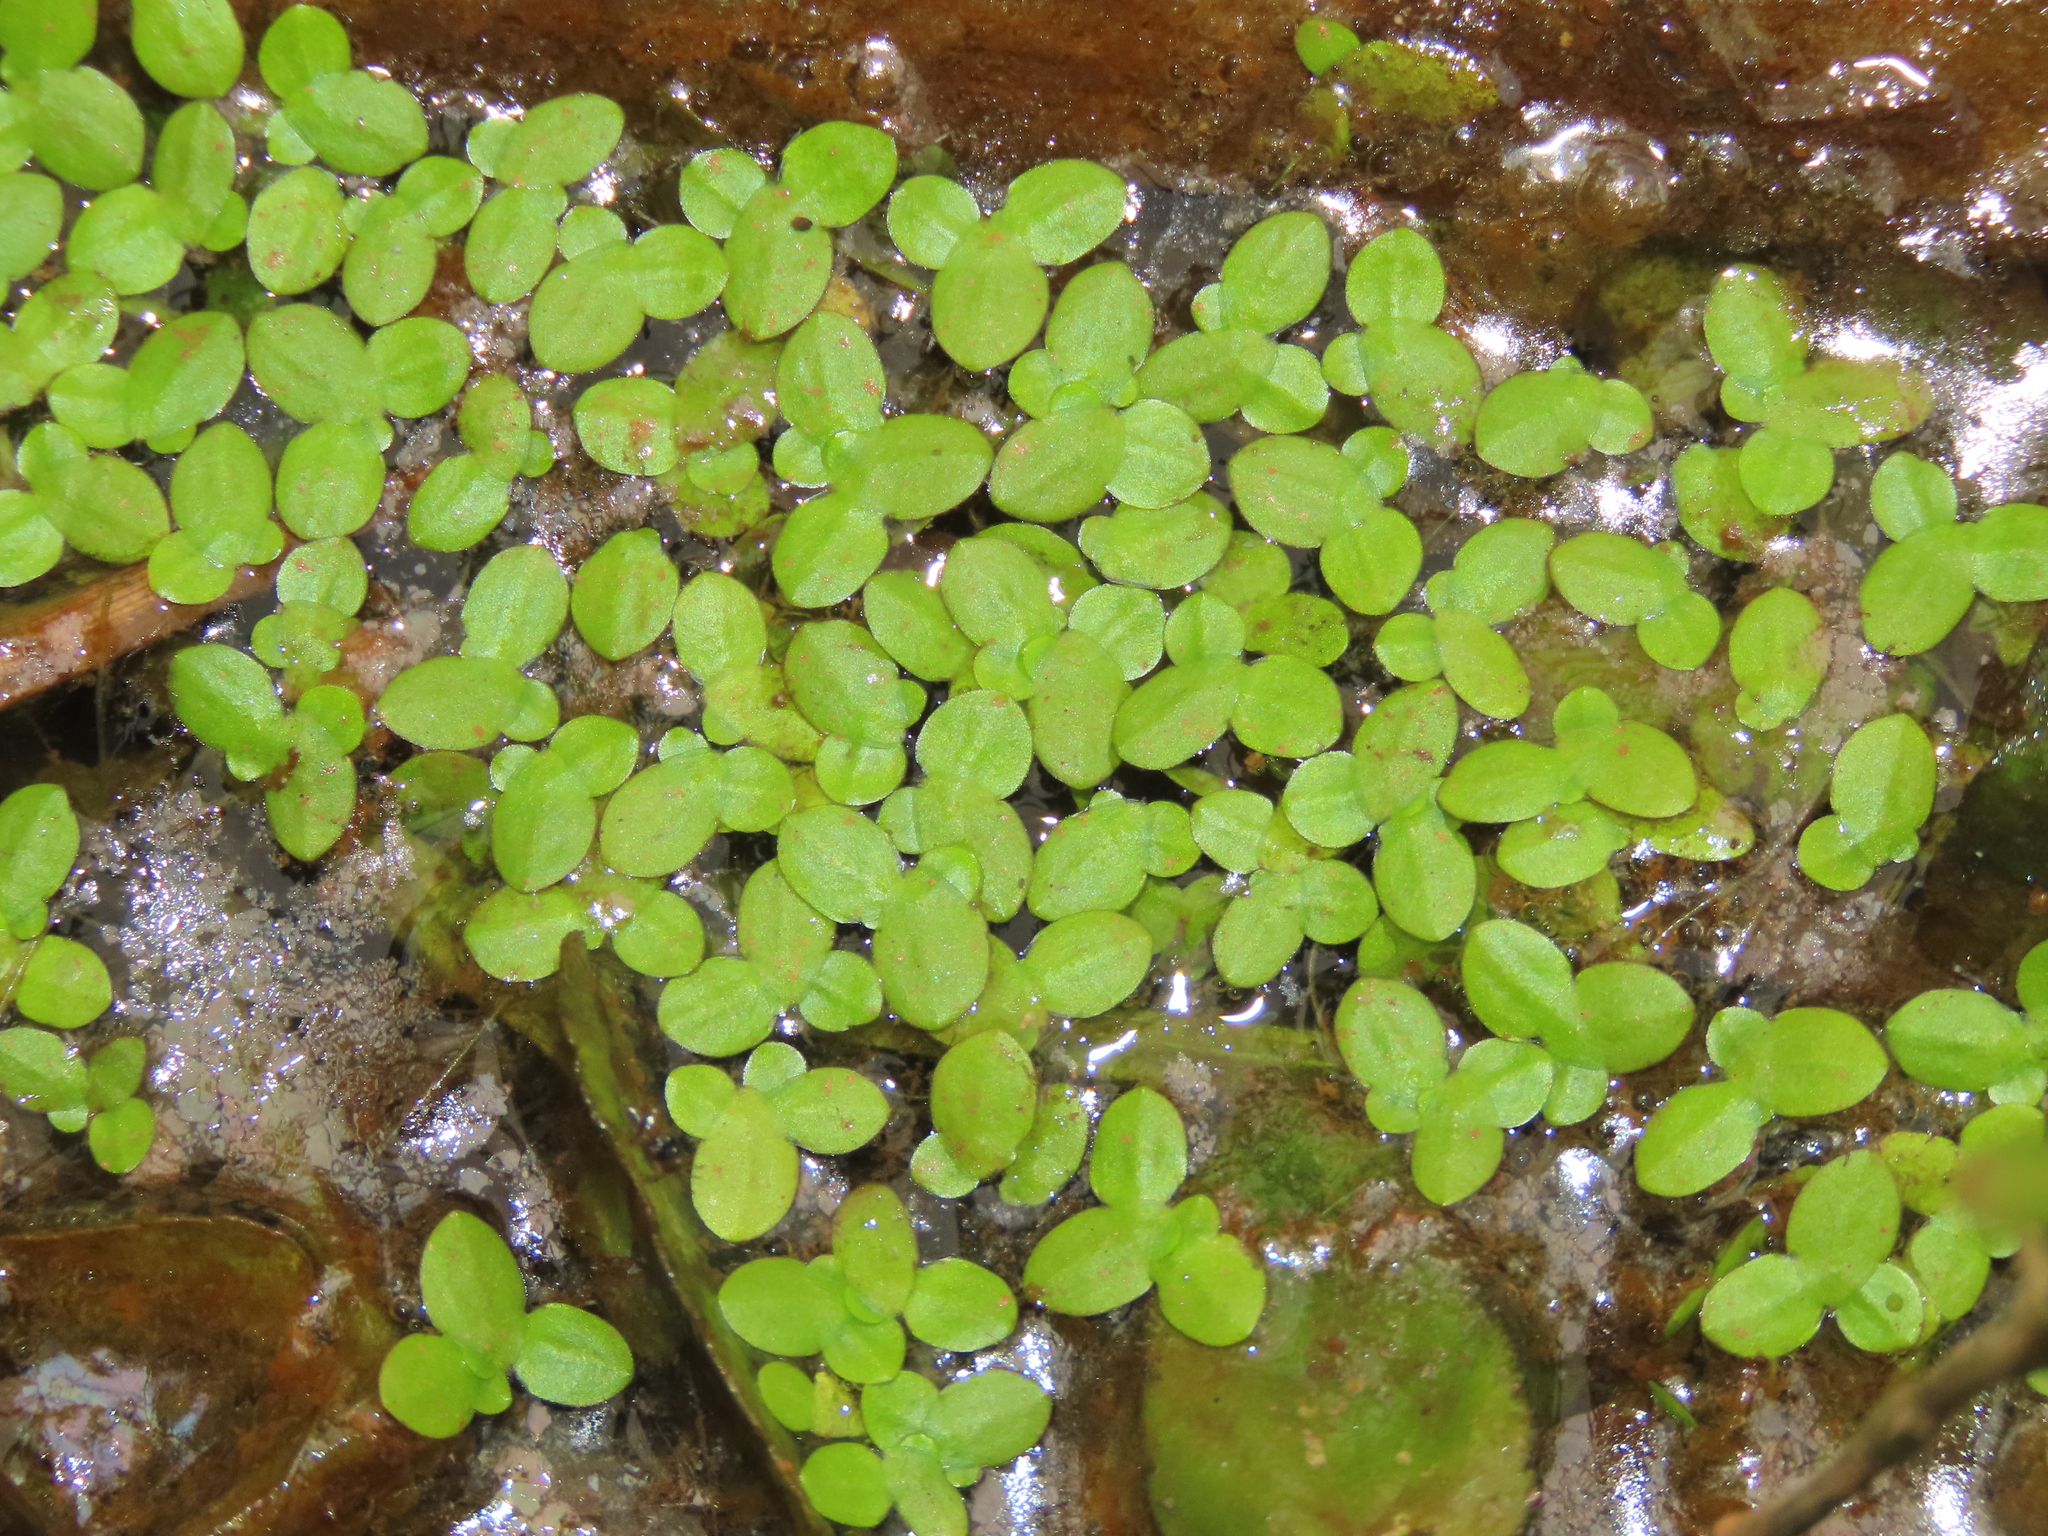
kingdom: Plantae
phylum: Tracheophyta
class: Liliopsida
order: Alismatales
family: Araceae
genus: Lemna
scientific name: Lemna aequinoctialis
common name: Duckweed
